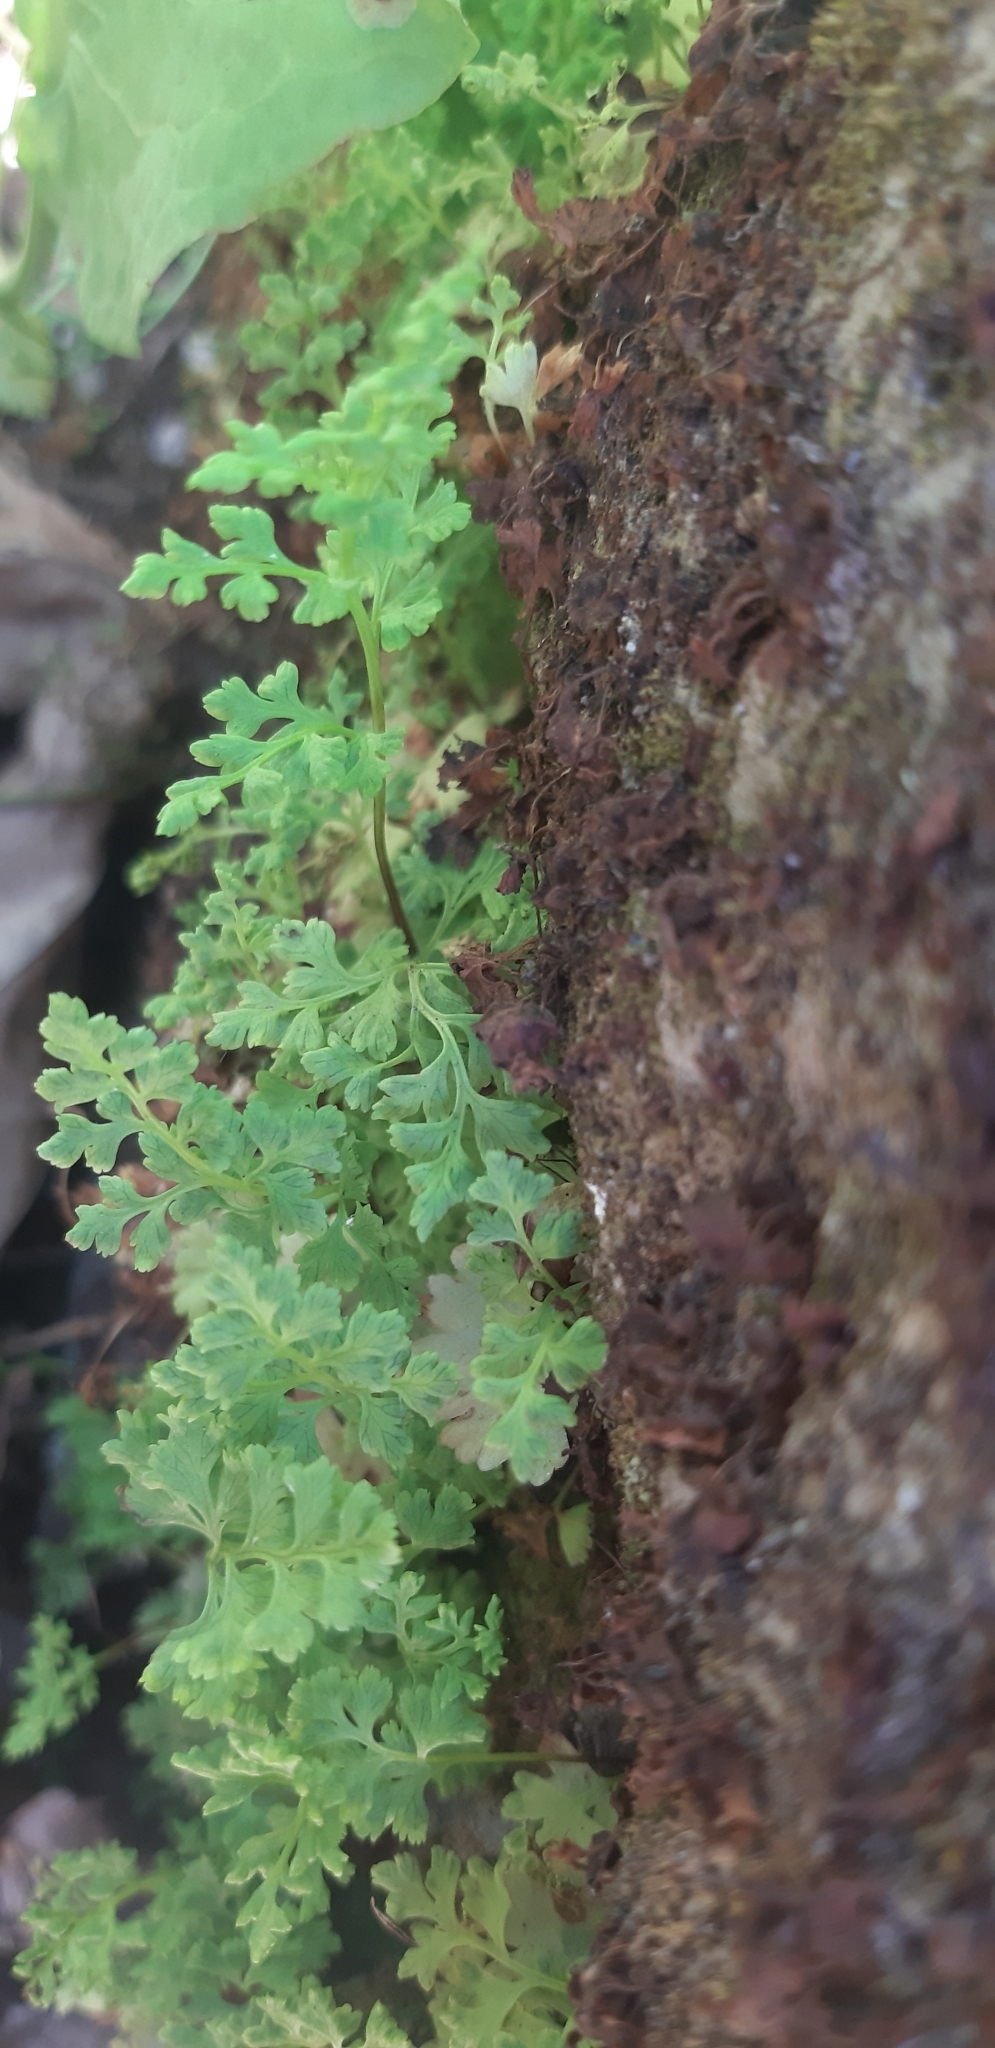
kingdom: Plantae
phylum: Tracheophyta
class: Polypodiopsida
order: Polypodiales
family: Pteridaceae
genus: Anogramma
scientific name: Anogramma leptophylla
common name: Jersey fern
